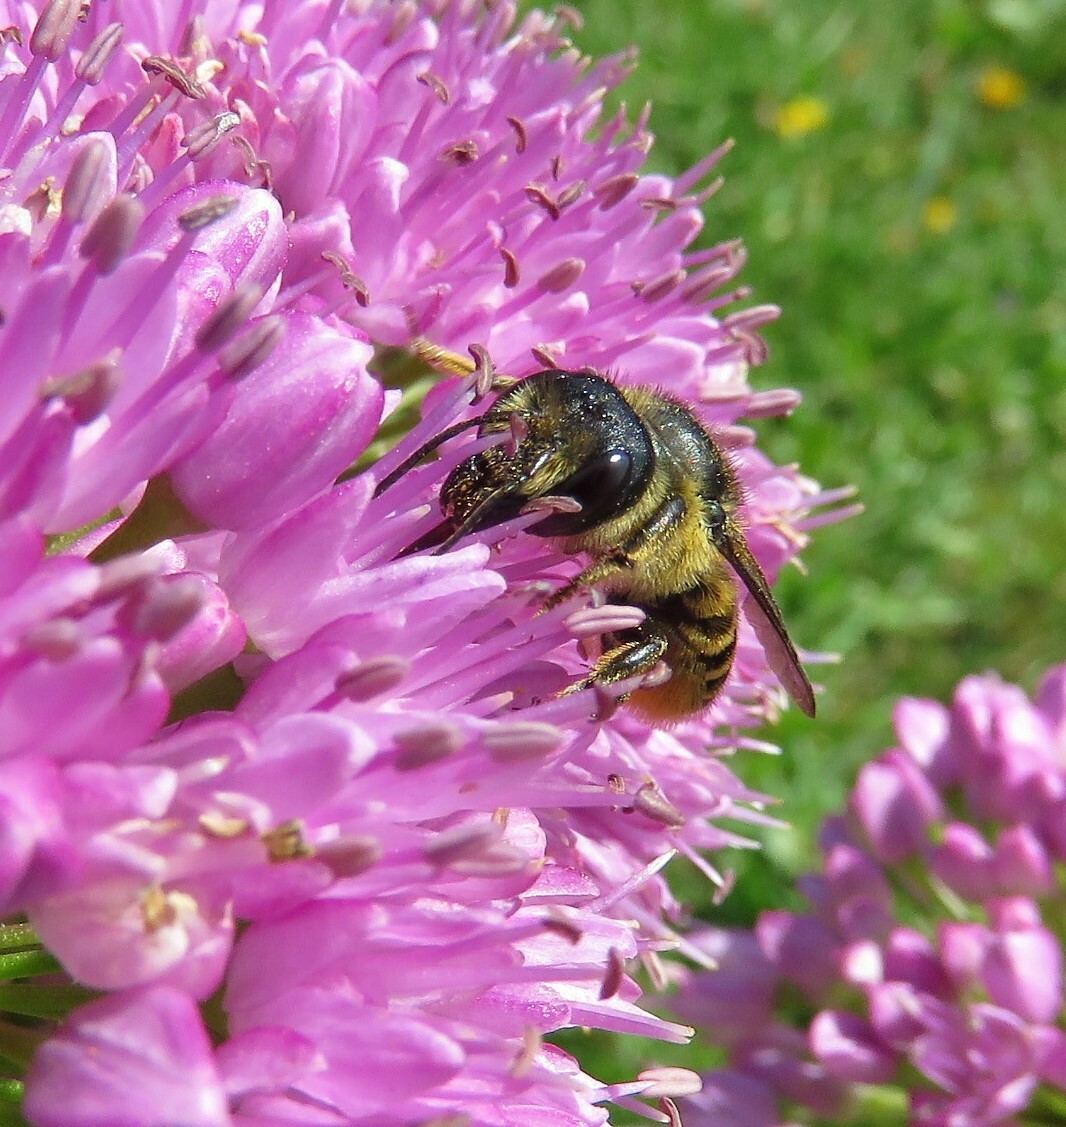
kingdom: Animalia
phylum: Arthropoda
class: Insecta
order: Hymenoptera
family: Megachilidae
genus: Megachile
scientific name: Megachile inermis
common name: Unarmed leafcutter bee
